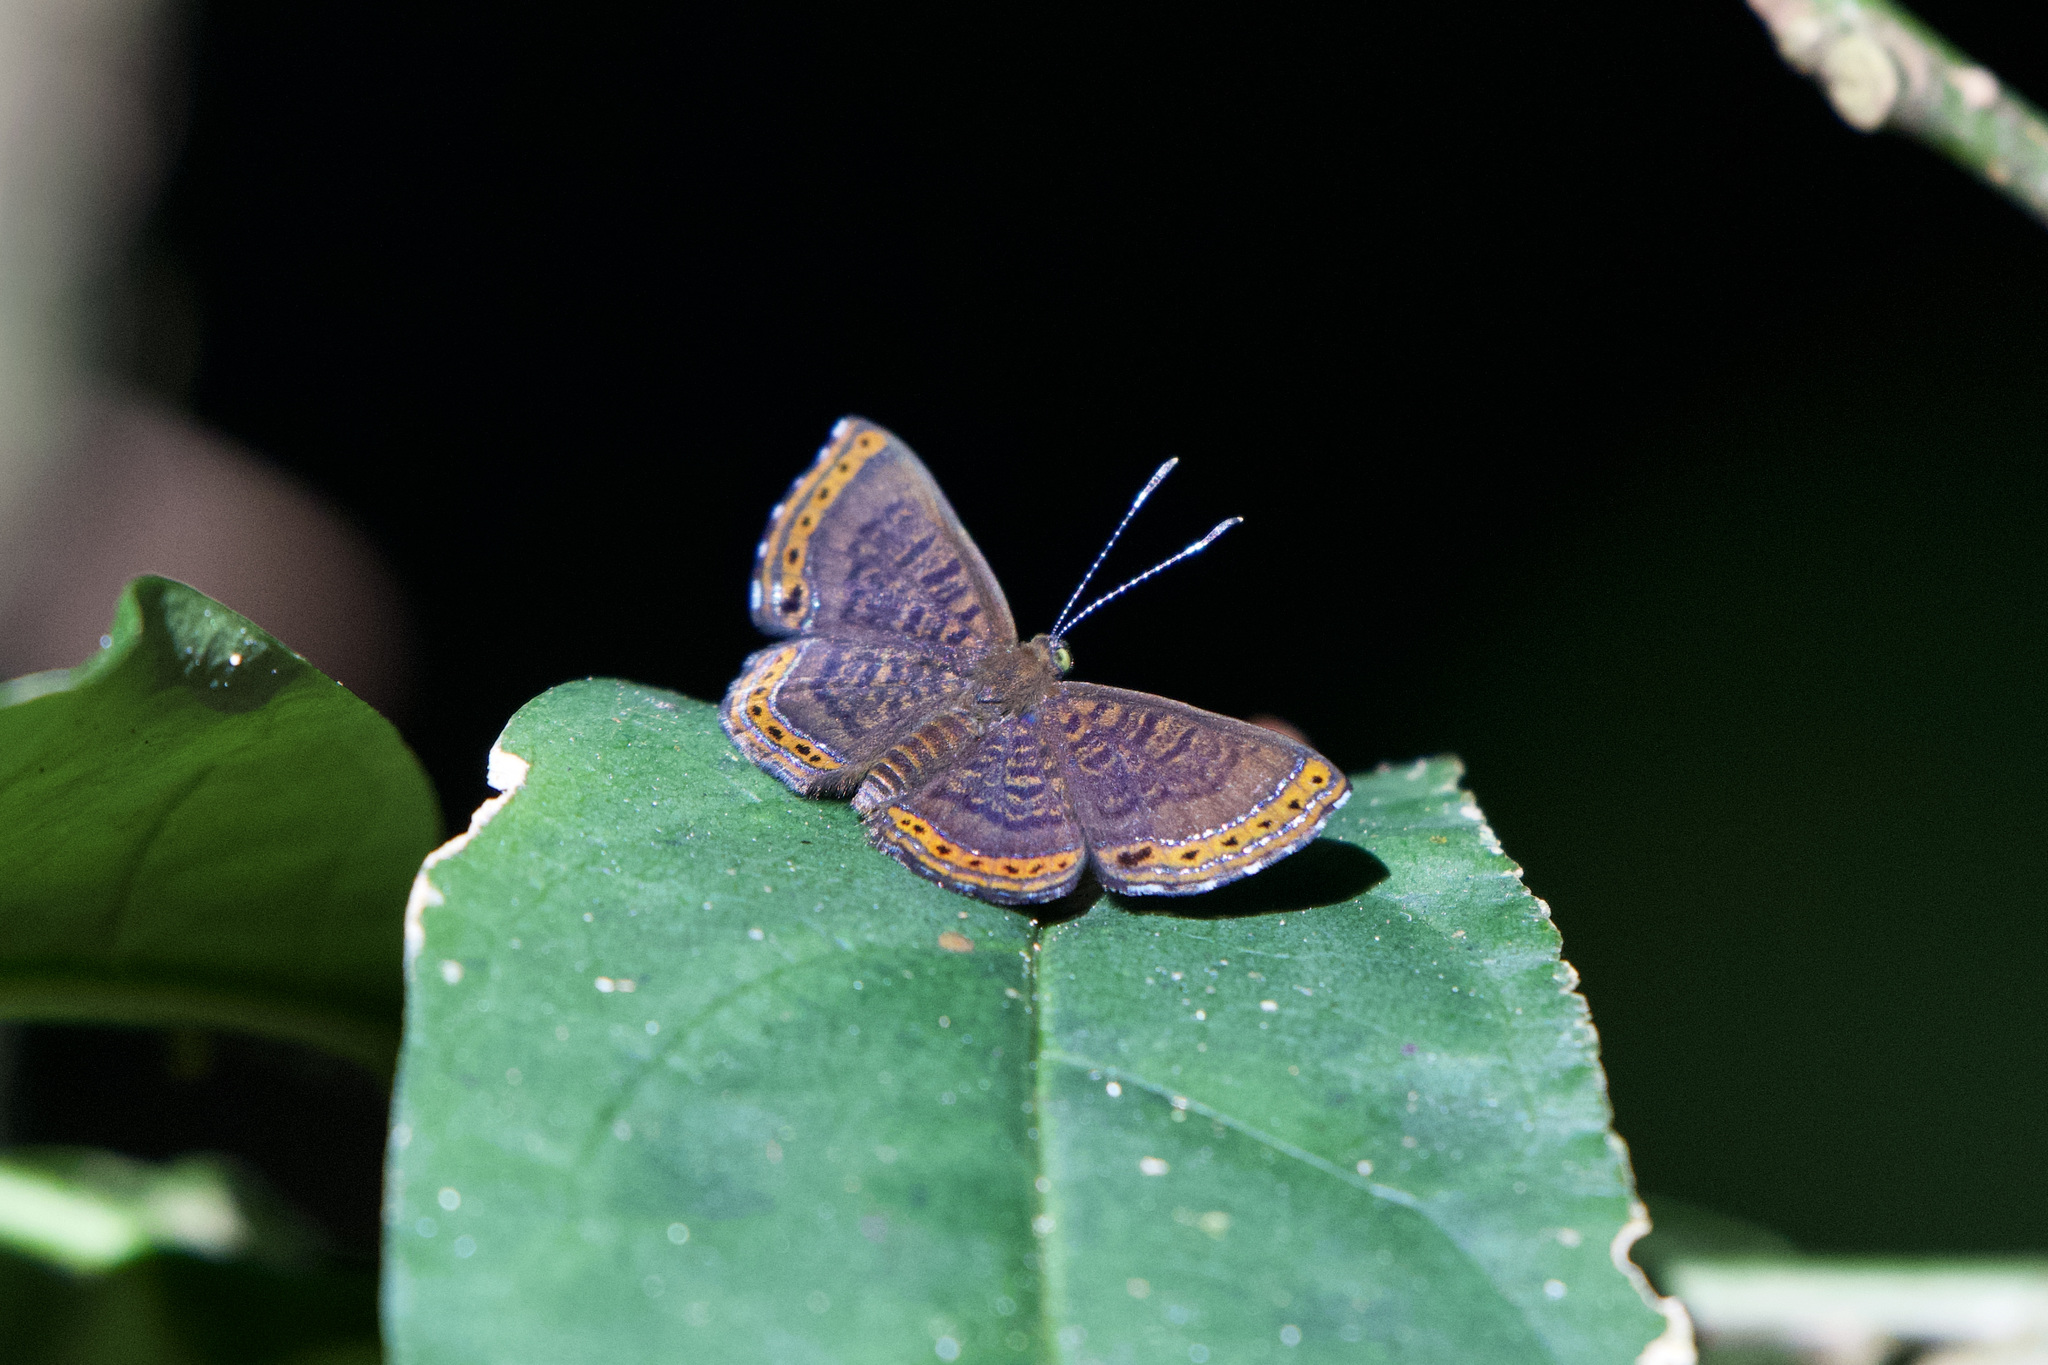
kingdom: Animalia
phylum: Arthropoda
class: Insecta
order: Lepidoptera
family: Riodinidae
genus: Detritivora
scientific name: Detritivora
